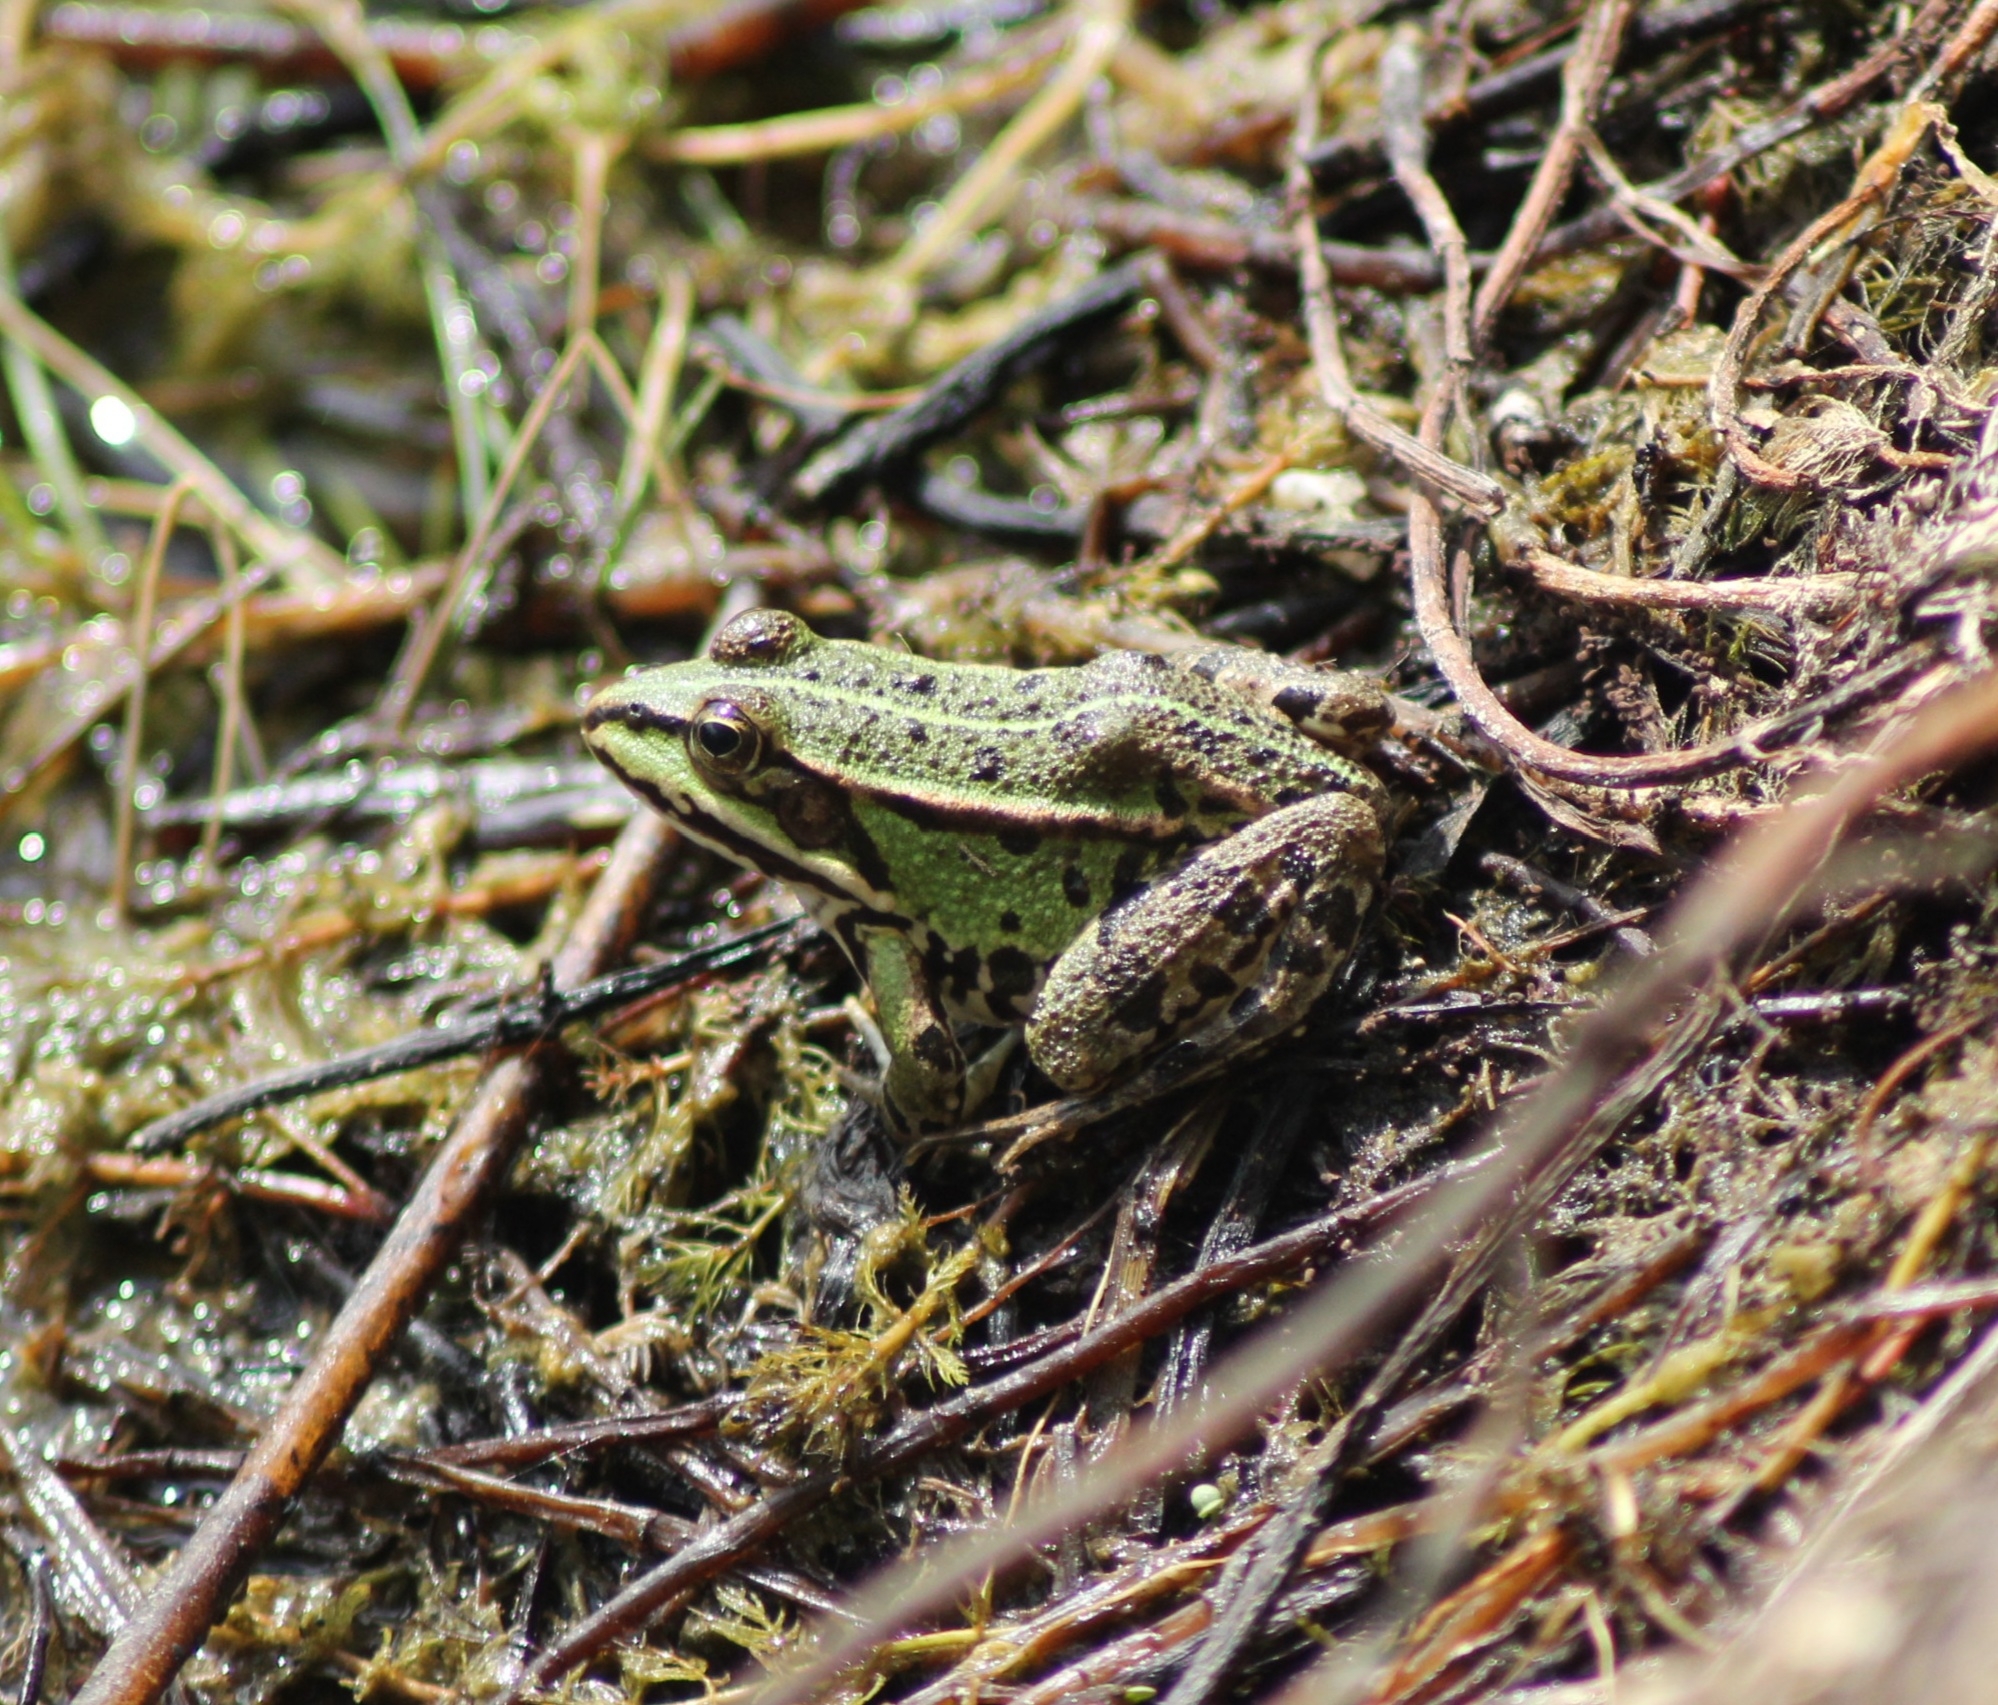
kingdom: Animalia
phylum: Chordata
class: Amphibia
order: Anura
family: Ranidae
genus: Pelophylax
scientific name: Pelophylax
